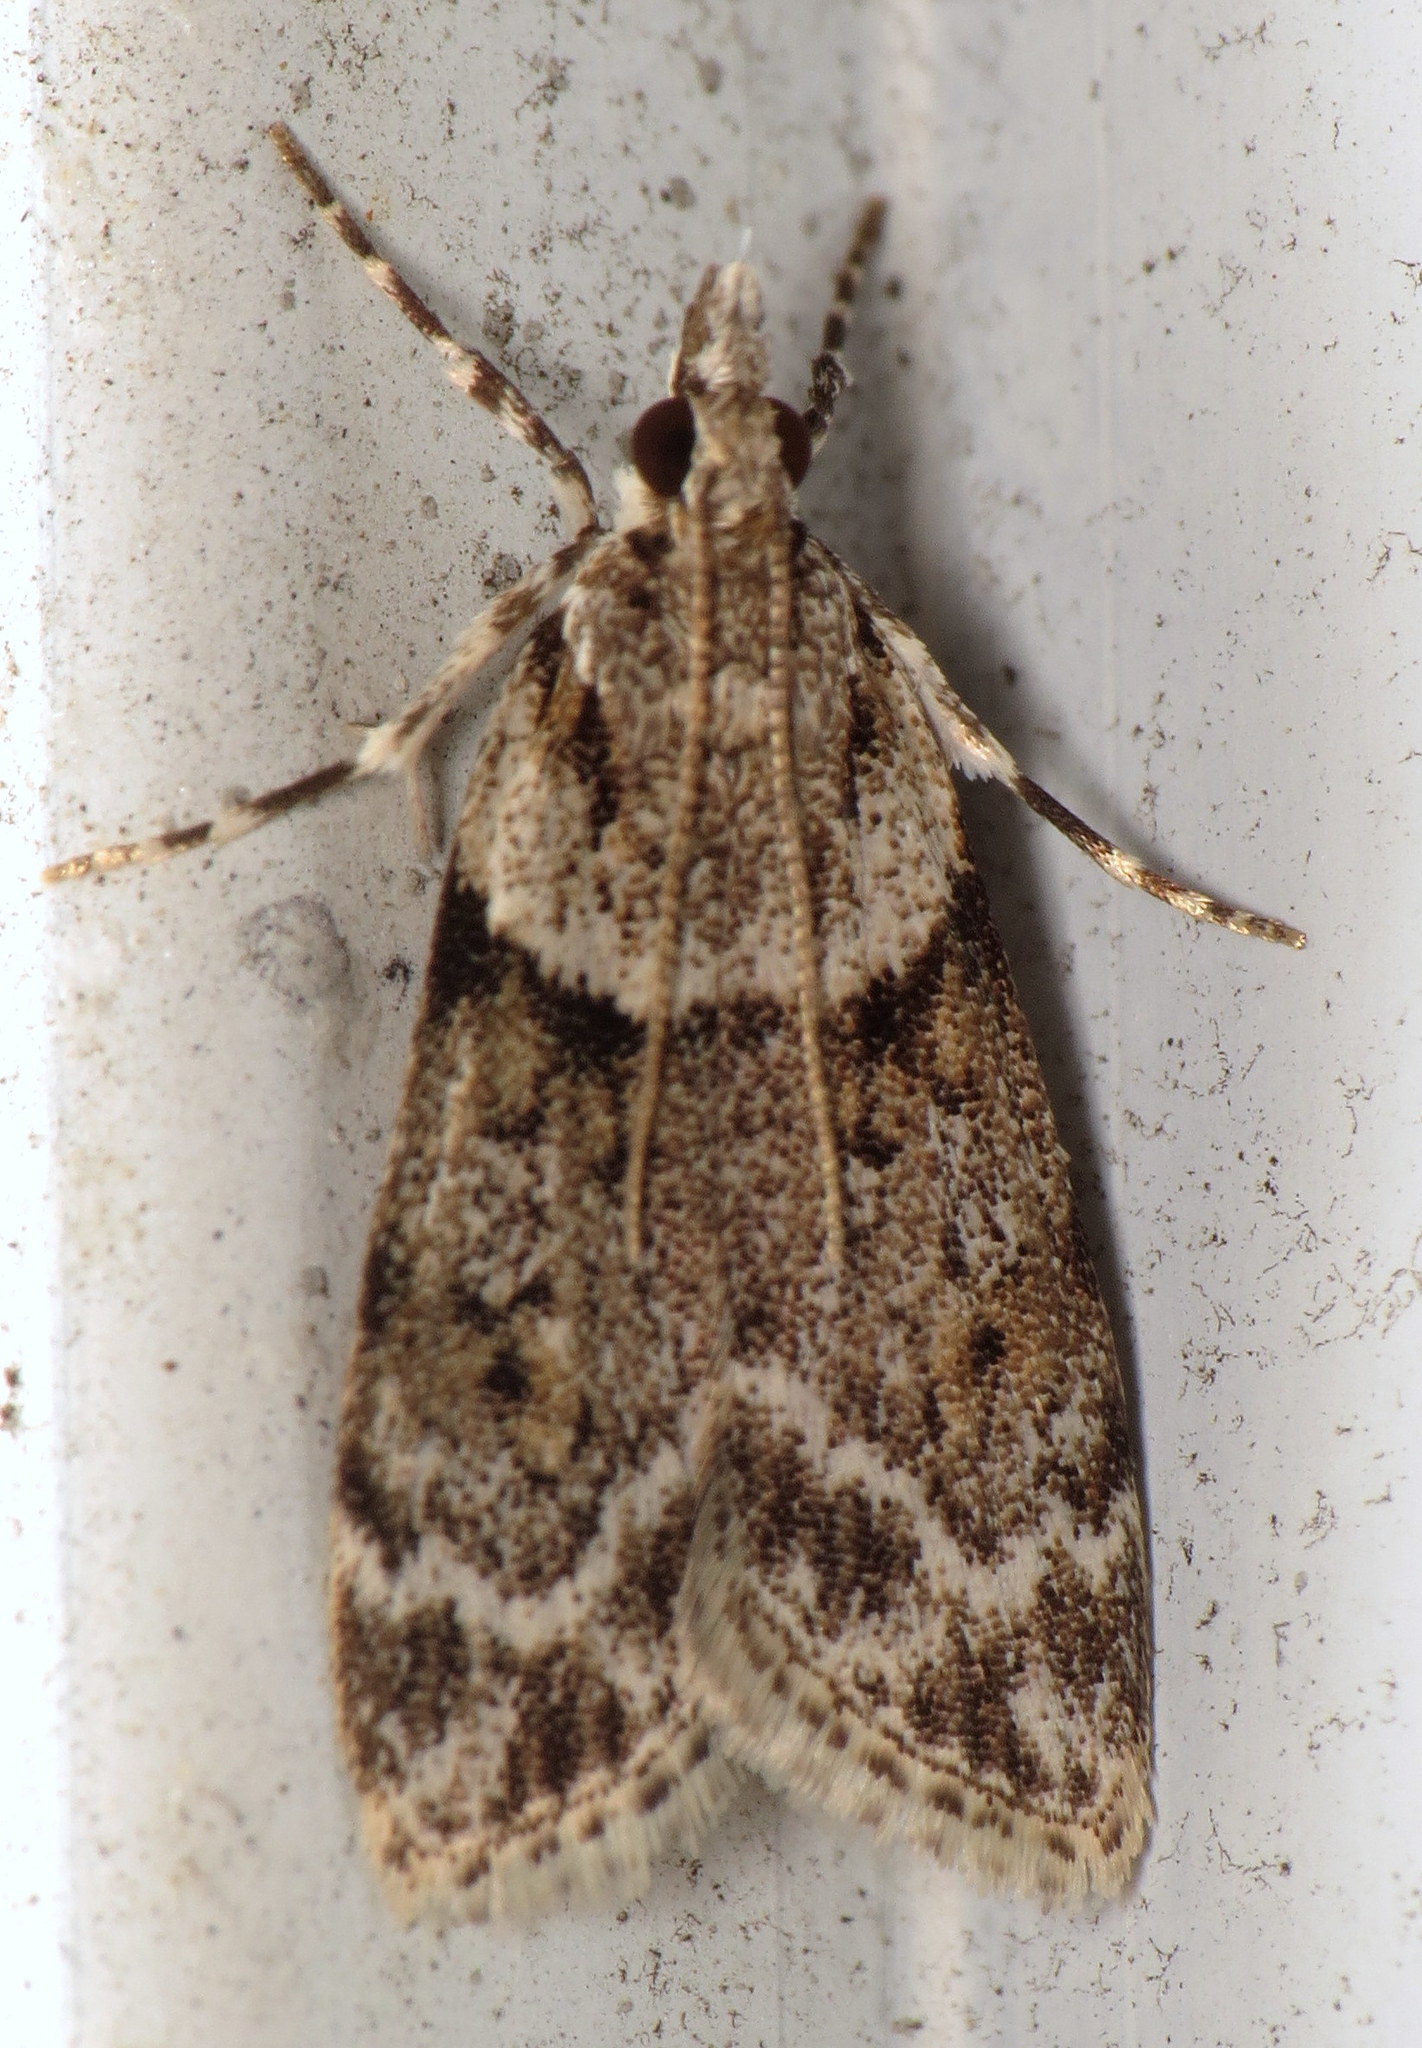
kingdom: Animalia
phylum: Arthropoda
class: Insecta
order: Lepidoptera
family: Crambidae
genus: Scoparia
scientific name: Scoparia biplagialis
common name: Double-striped scoparia moth
